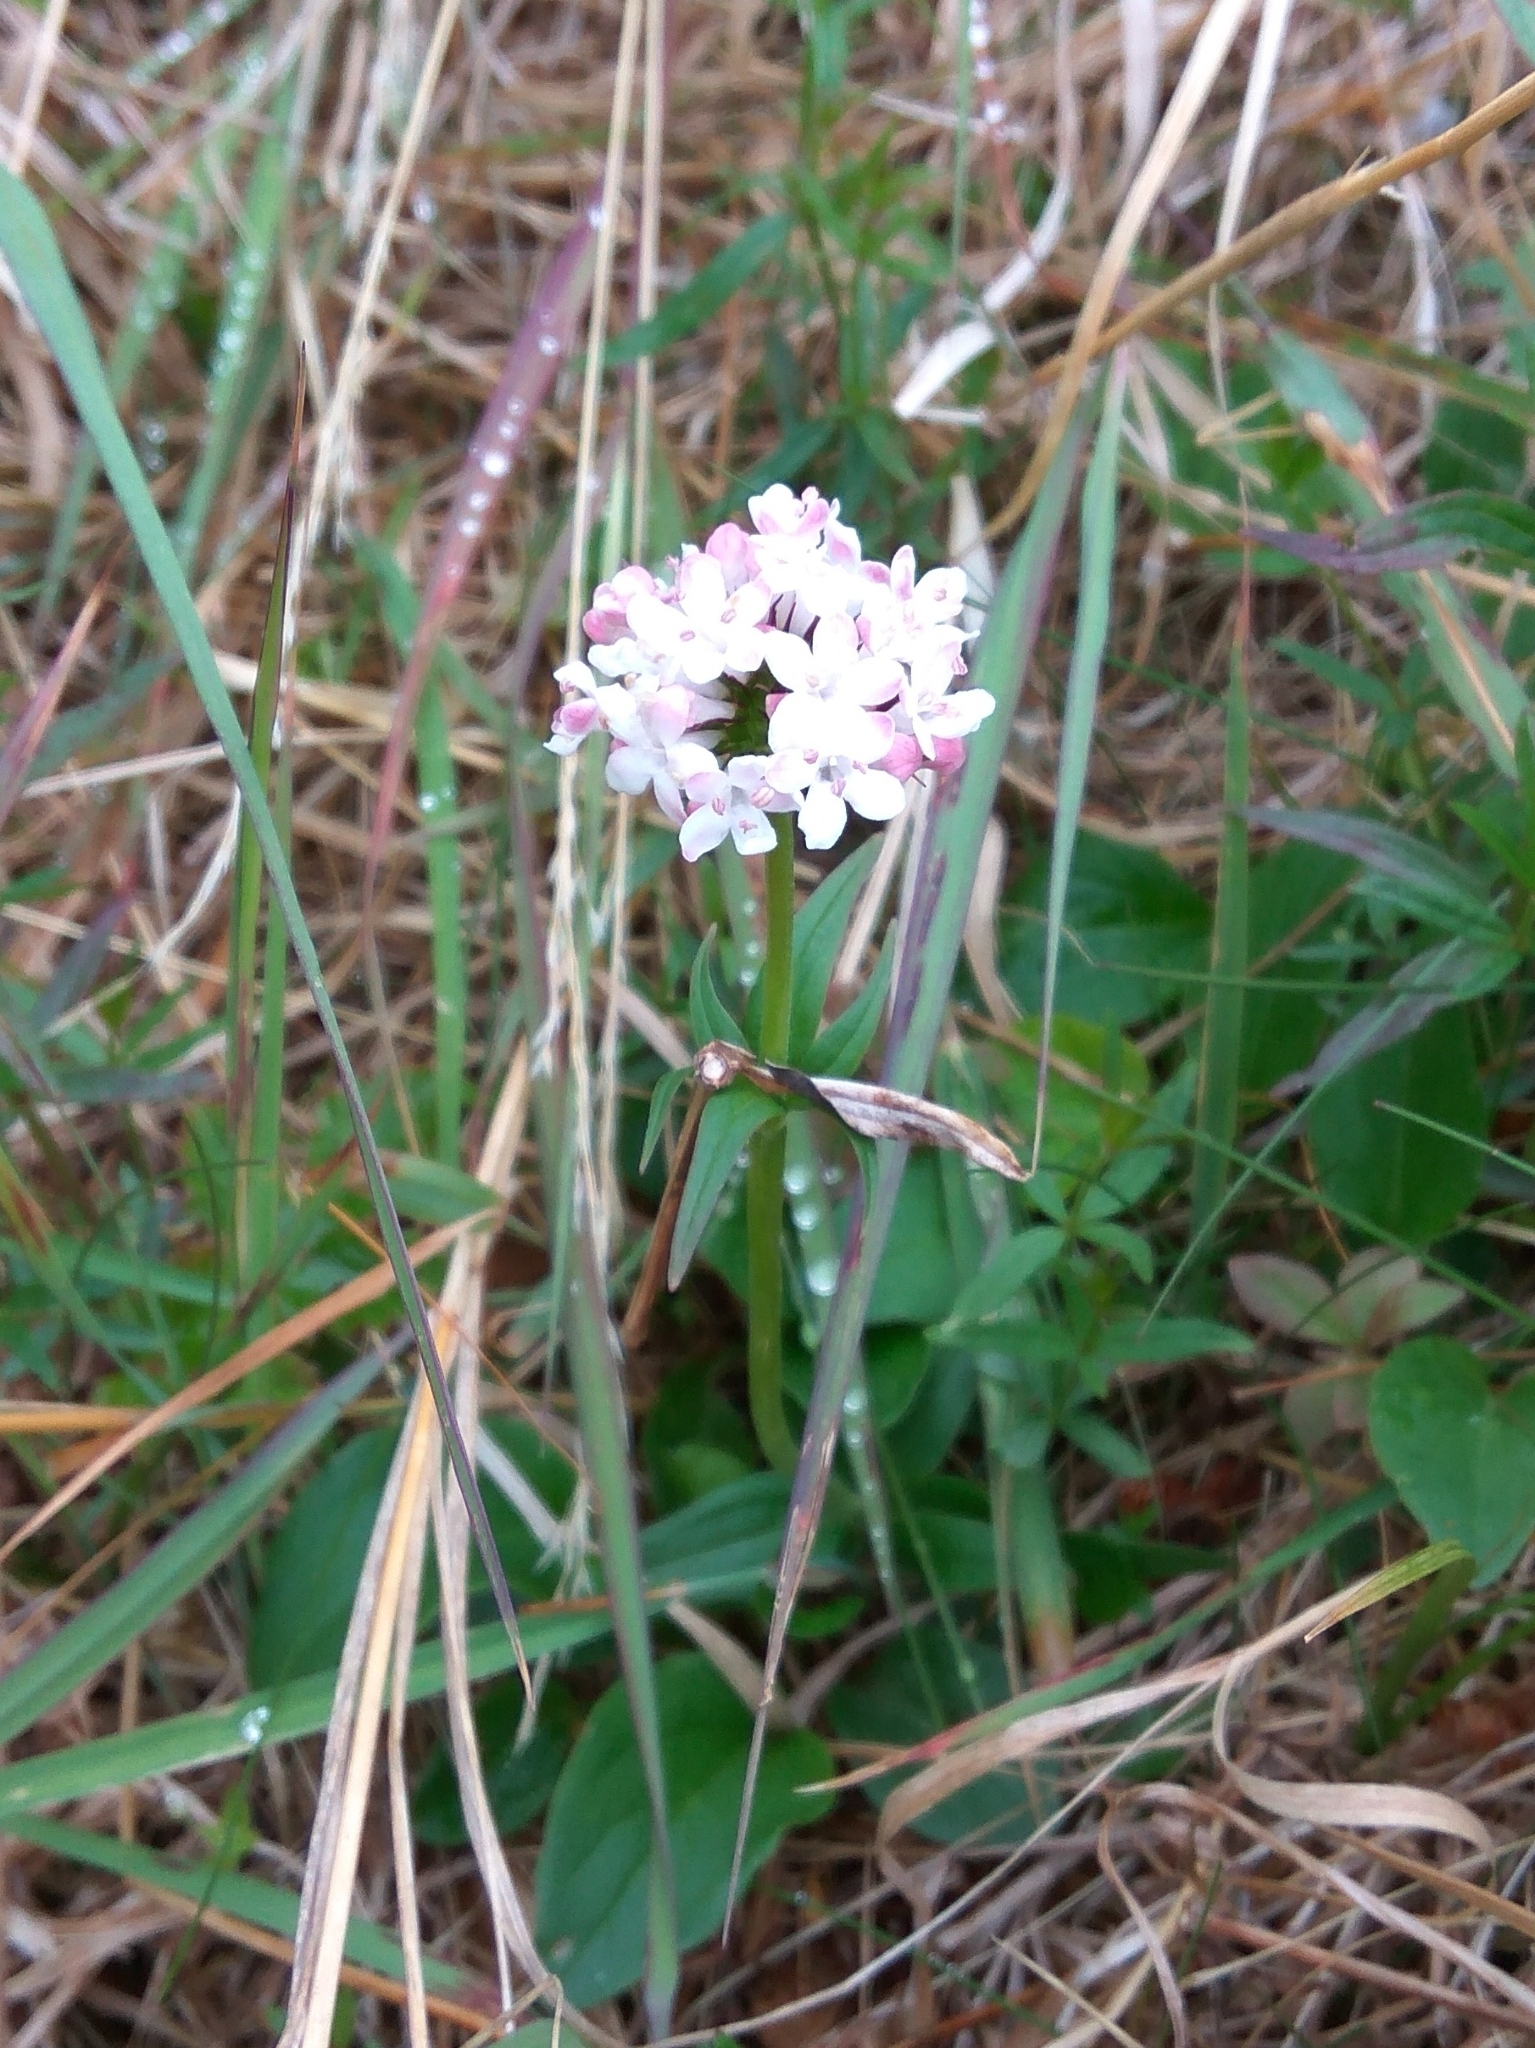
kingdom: Plantae
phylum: Tracheophyta
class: Magnoliopsida
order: Dipsacales
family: Caprifoliaceae
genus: Valeriana
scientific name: Valeriana capitata
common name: Capitate valerian
